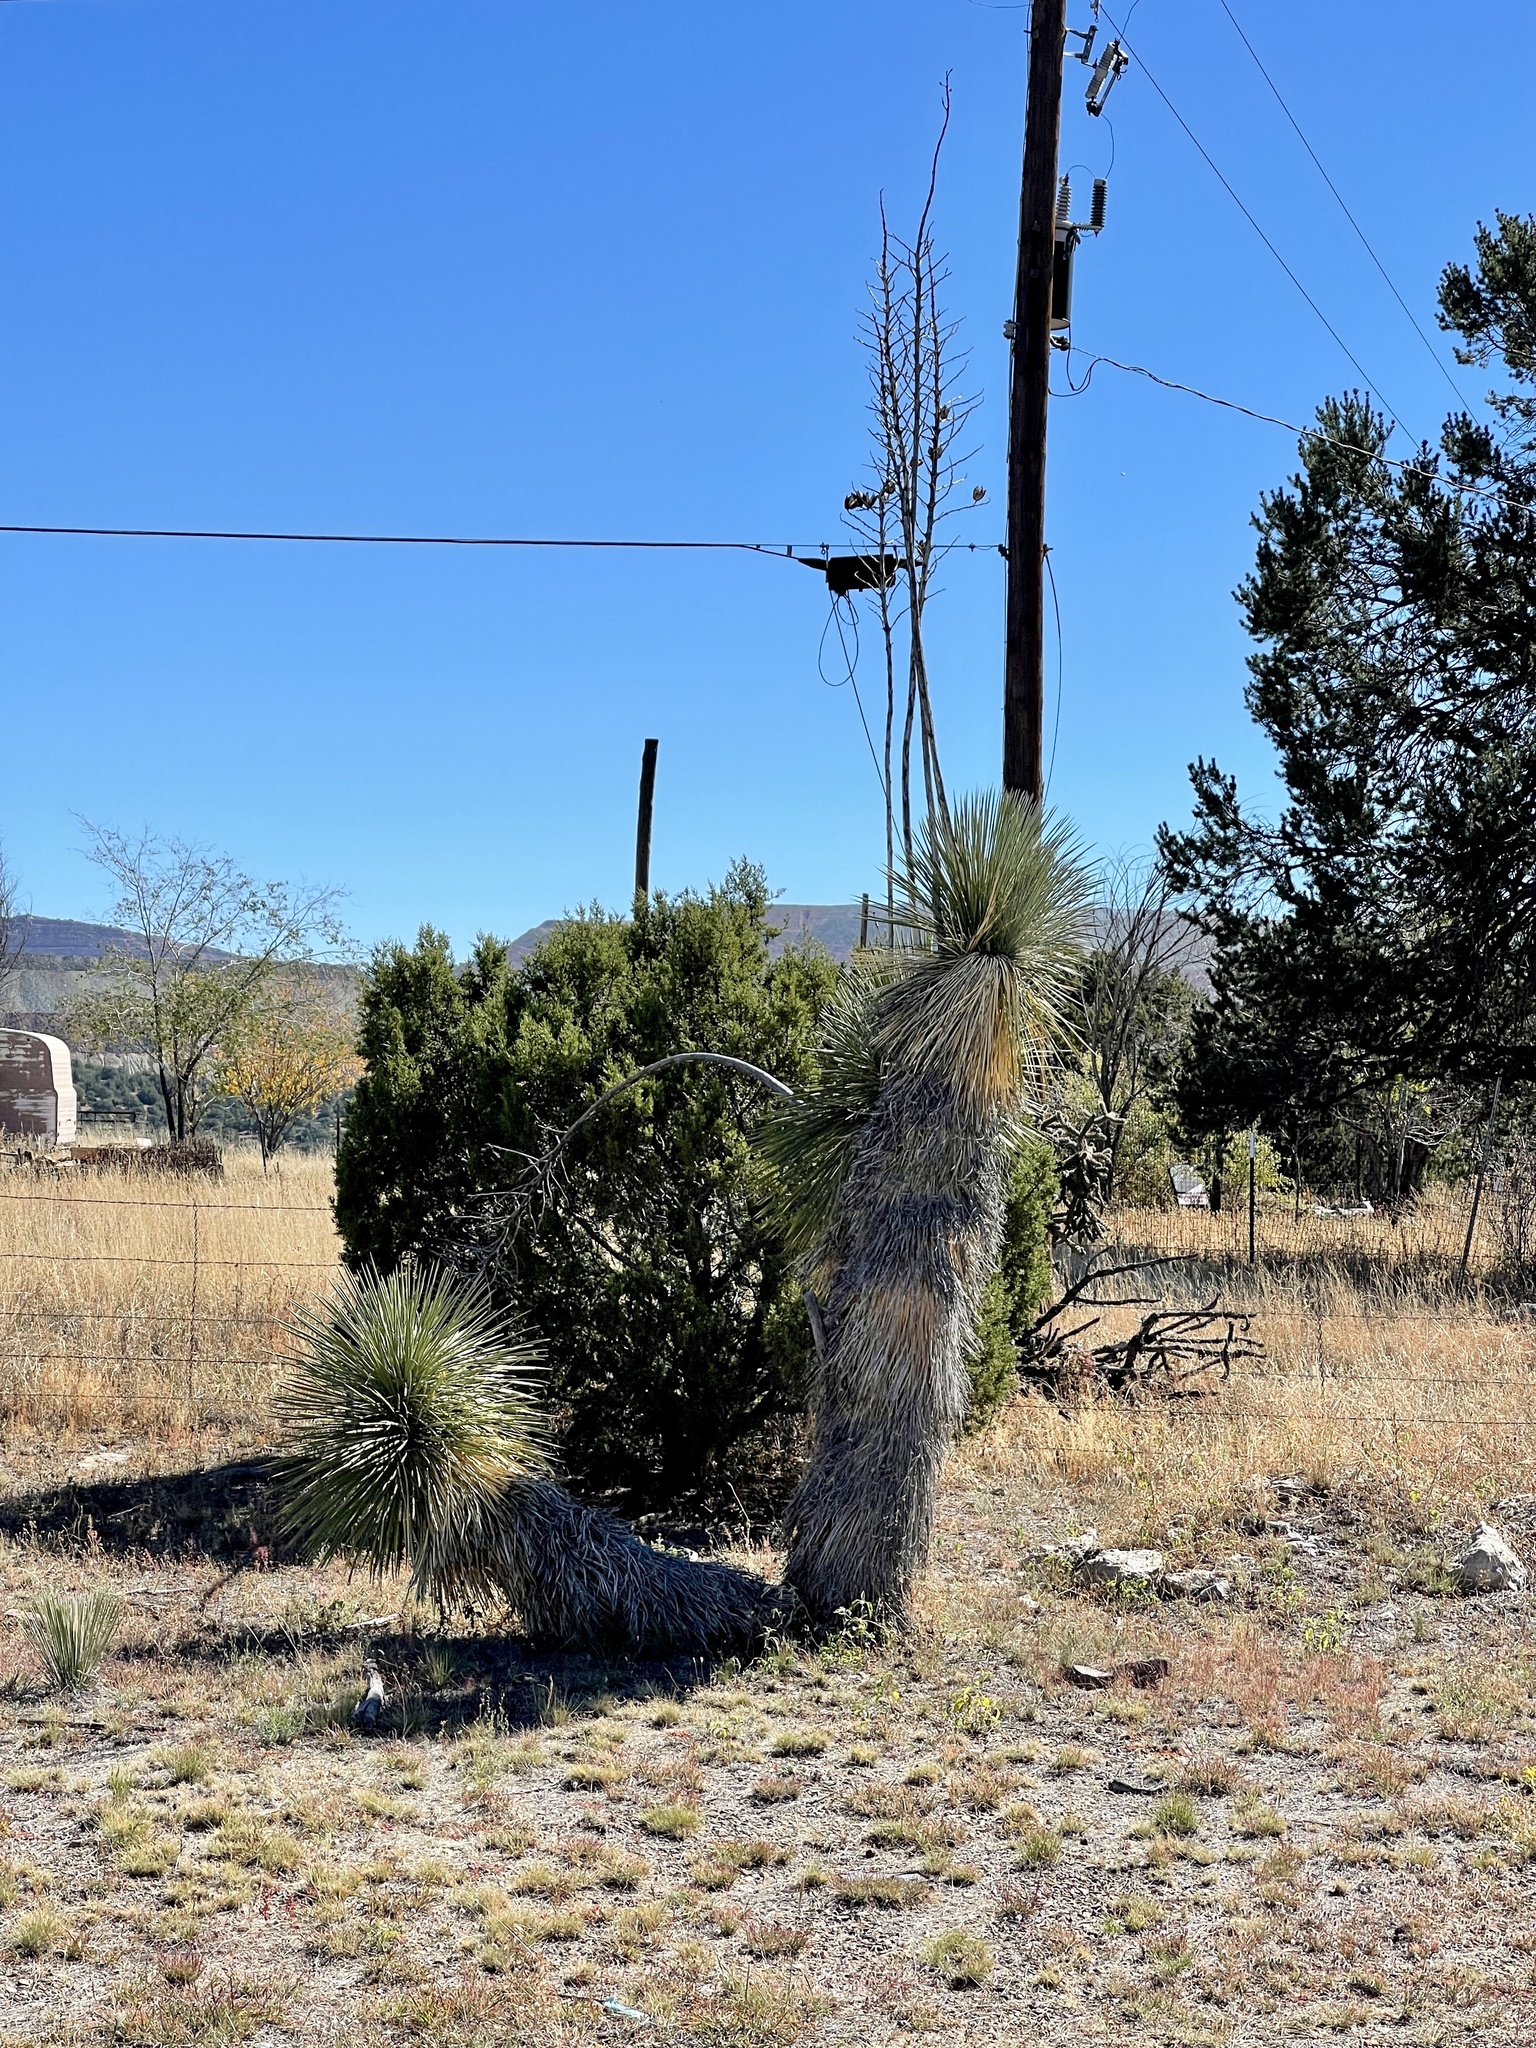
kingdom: Plantae
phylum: Tracheophyta
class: Liliopsida
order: Asparagales
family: Asparagaceae
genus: Yucca
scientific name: Yucca elata
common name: Palmella
